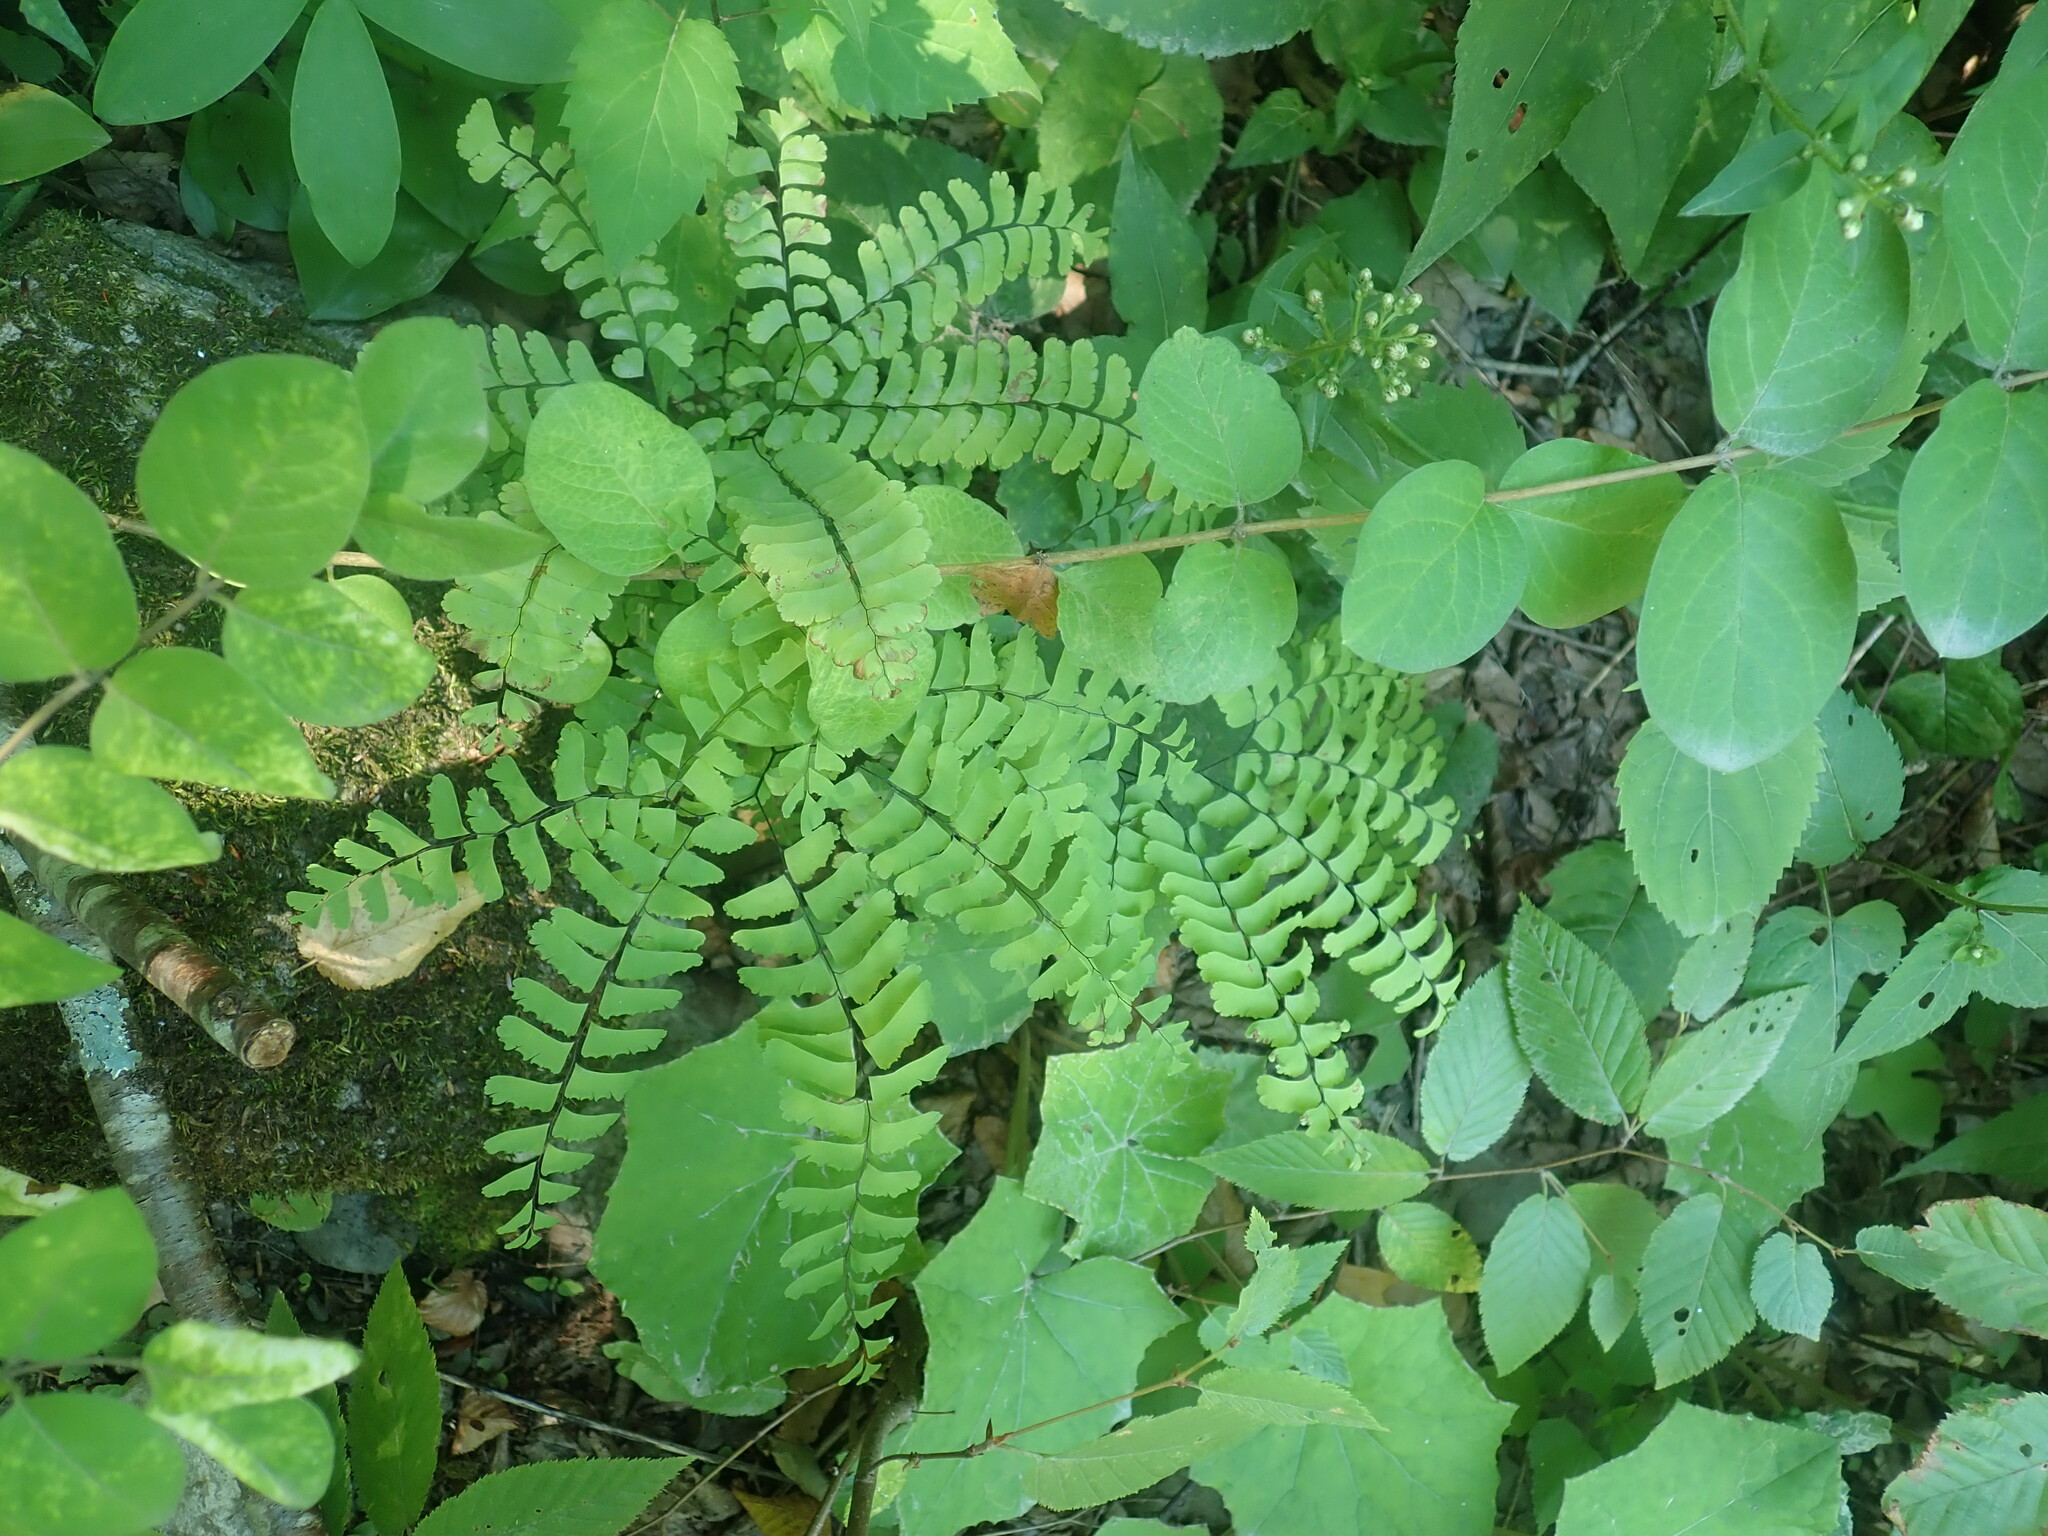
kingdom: Plantae
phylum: Tracheophyta
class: Polypodiopsida
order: Polypodiales
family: Pteridaceae
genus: Adiantum
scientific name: Adiantum pedatum
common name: Five-finger fern
